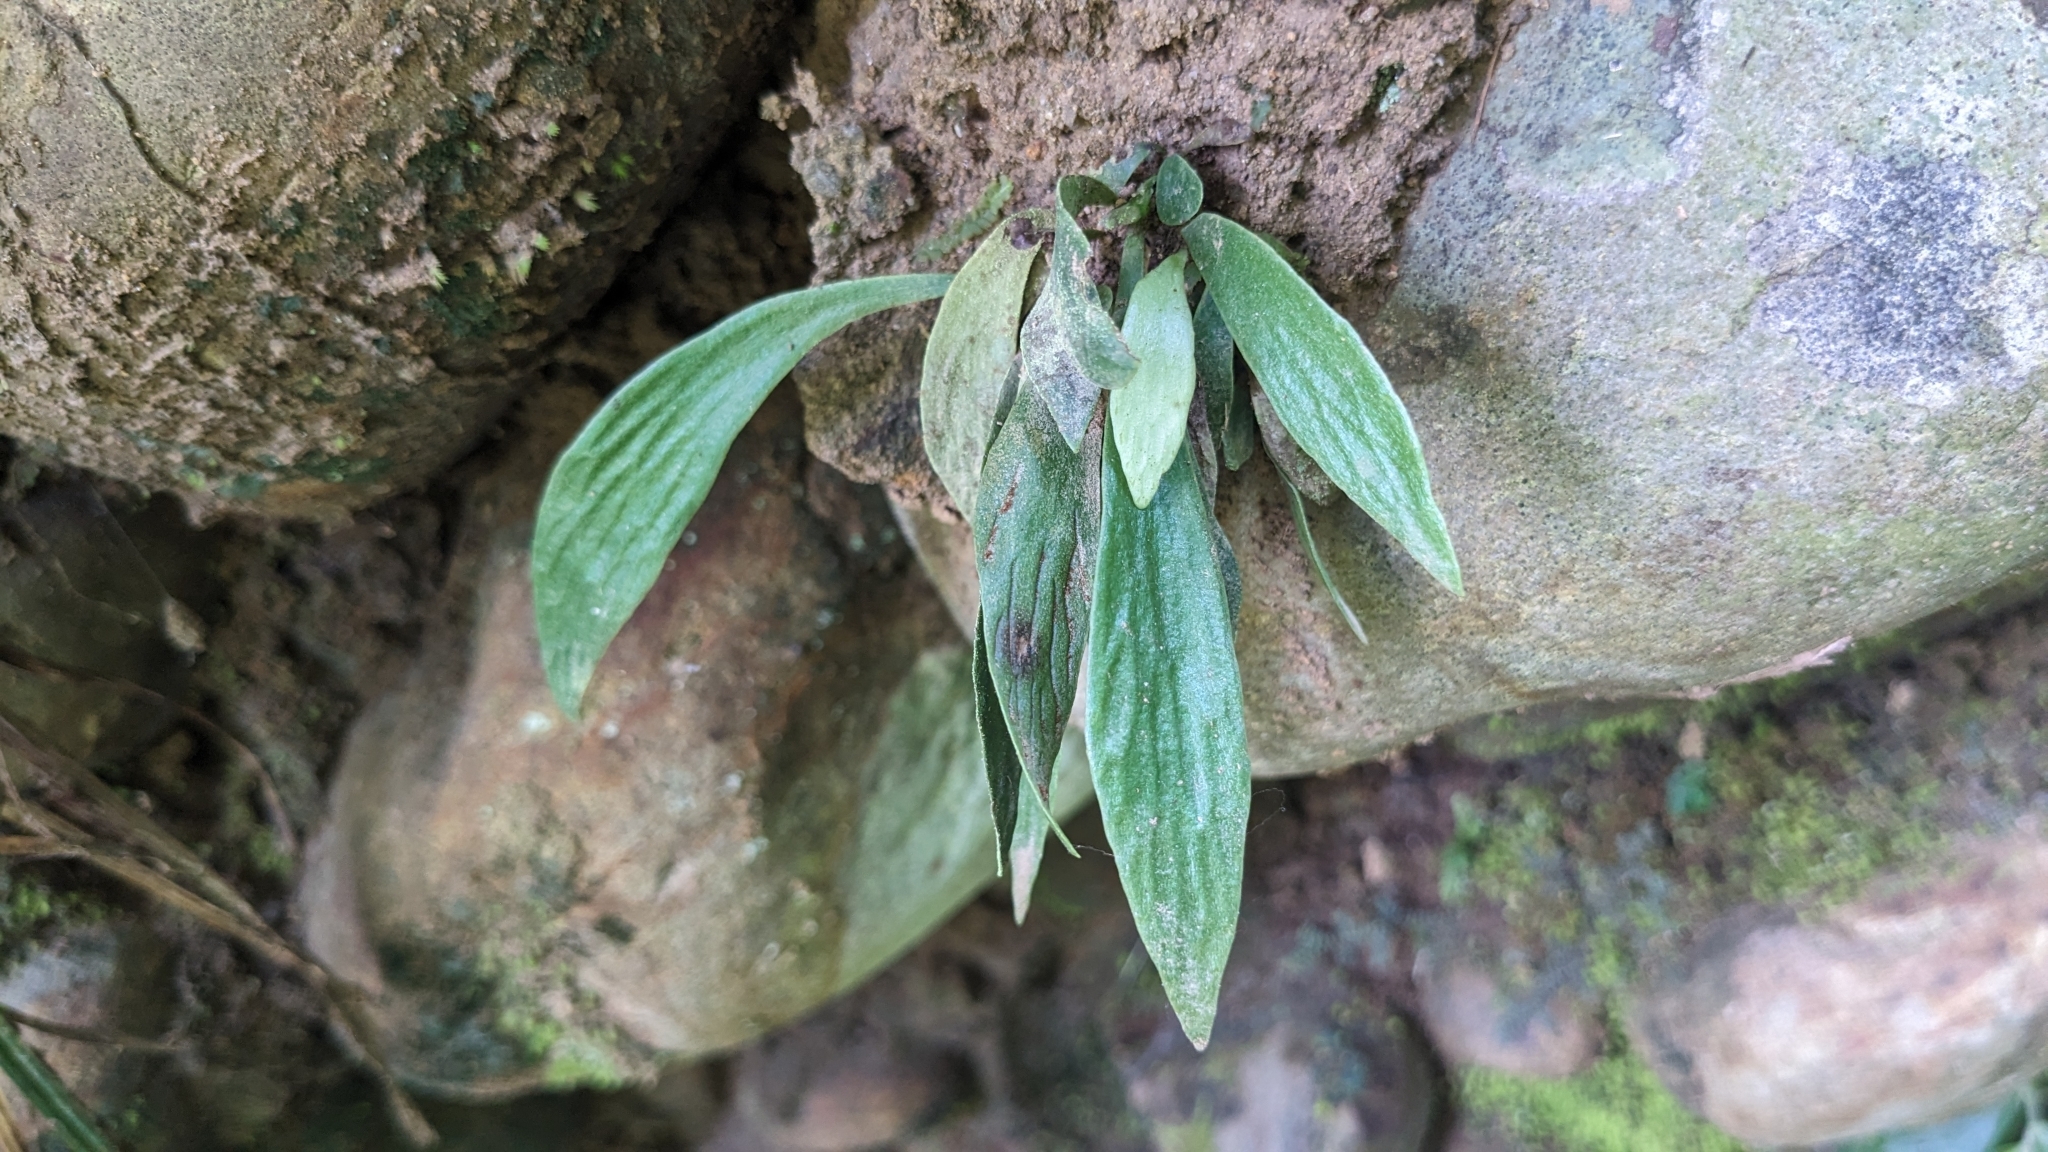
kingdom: Plantae
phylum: Tracheophyta
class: Polypodiopsida
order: Polypodiales
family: Pteridaceae
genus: Antrophyum
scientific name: Antrophyum formosanum
